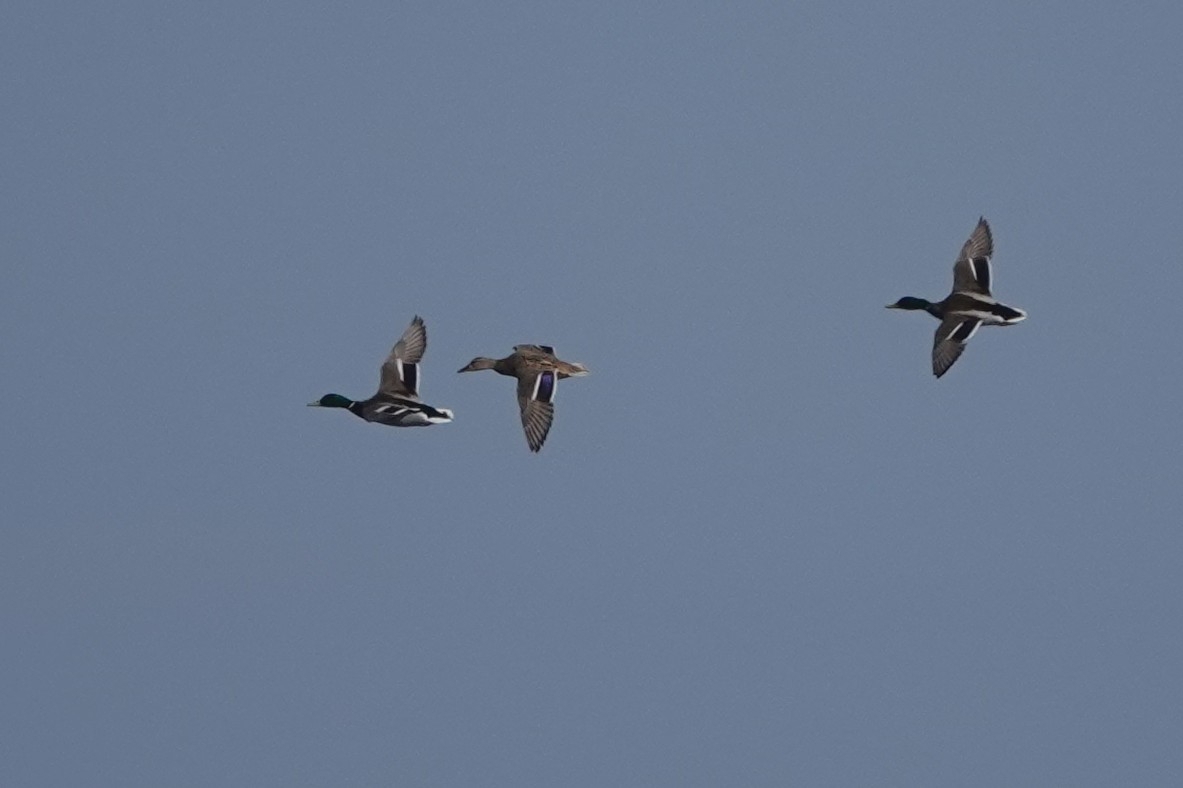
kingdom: Animalia
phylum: Chordata
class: Aves
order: Anseriformes
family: Anatidae
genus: Anas
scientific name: Anas platyrhynchos
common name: Mallard
